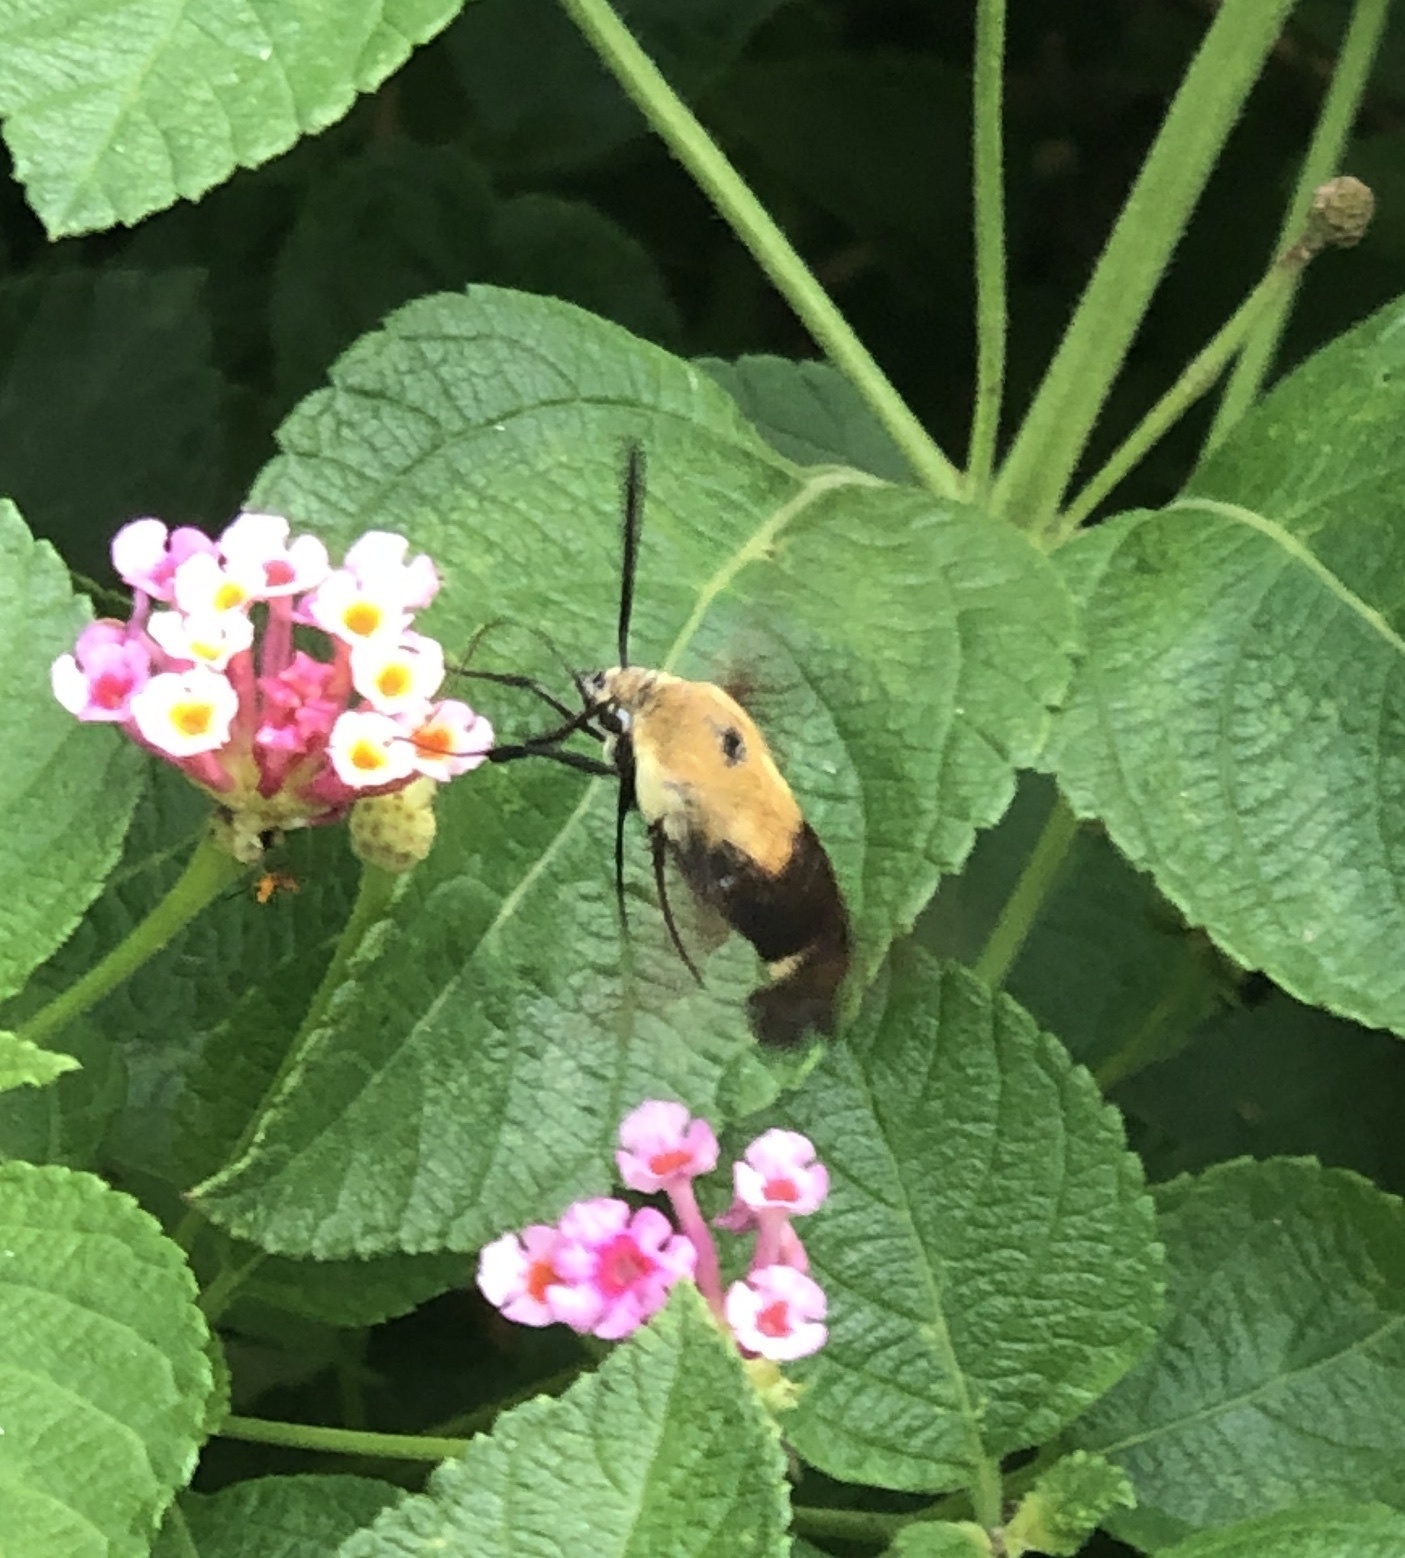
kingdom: Animalia
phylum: Arthropoda
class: Insecta
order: Lepidoptera
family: Sphingidae
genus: Hemaris
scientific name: Hemaris diffinis
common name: Bumblebee moth
